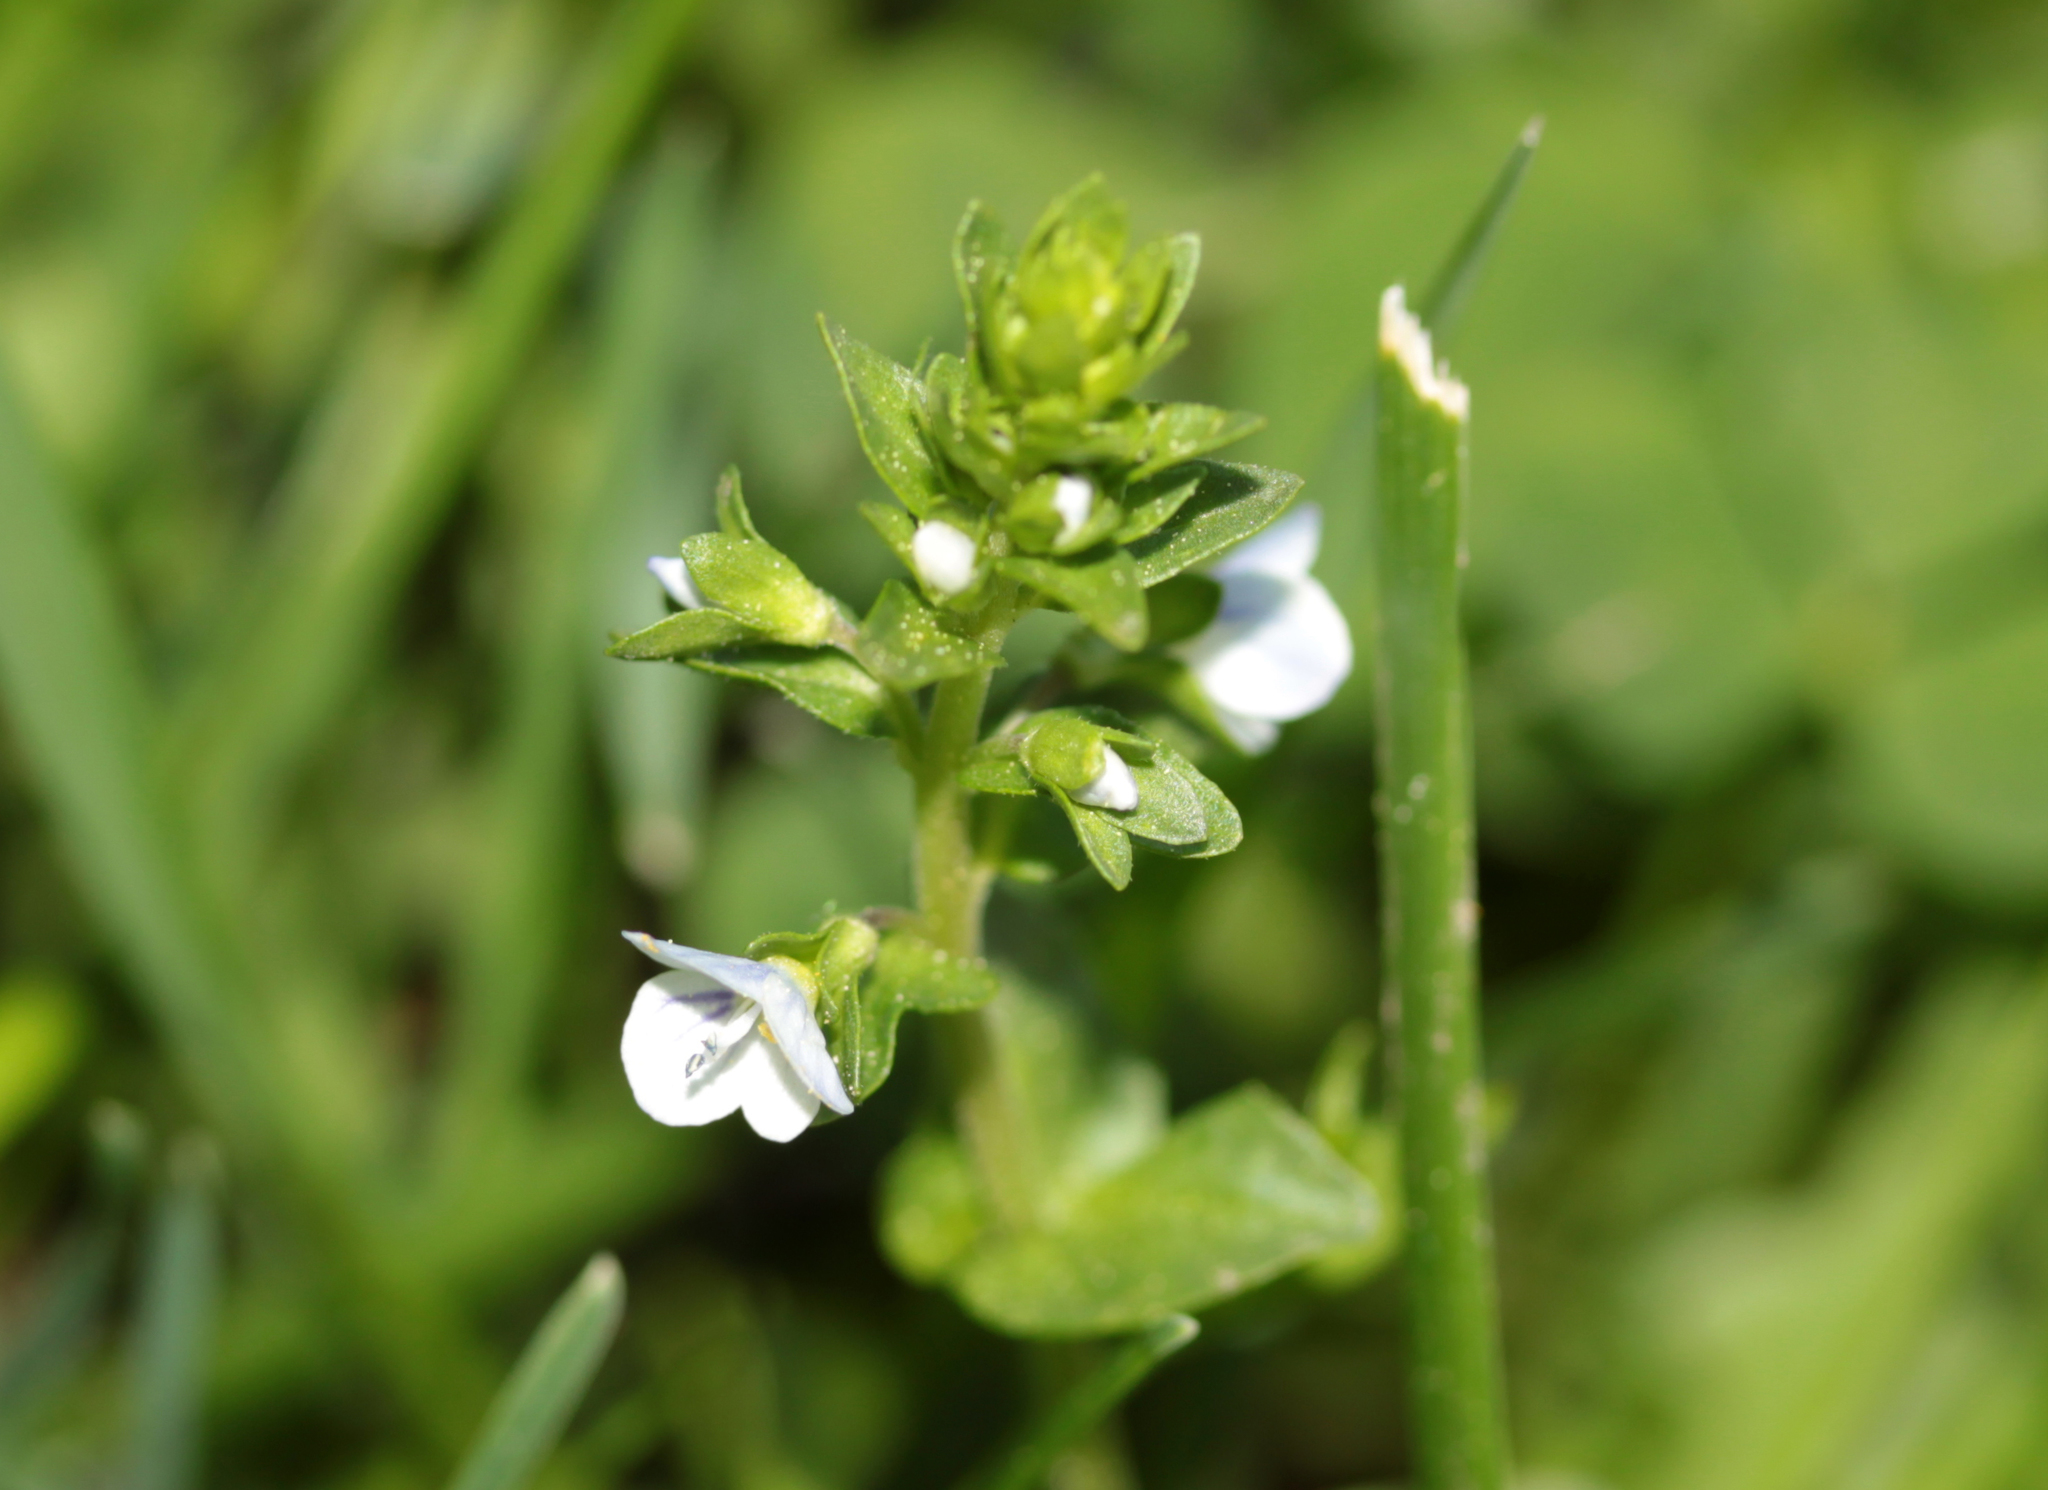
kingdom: Plantae
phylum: Tracheophyta
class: Magnoliopsida
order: Lamiales
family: Plantaginaceae
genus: Veronica
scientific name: Veronica serpyllifolia
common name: Thyme-leaved speedwell
